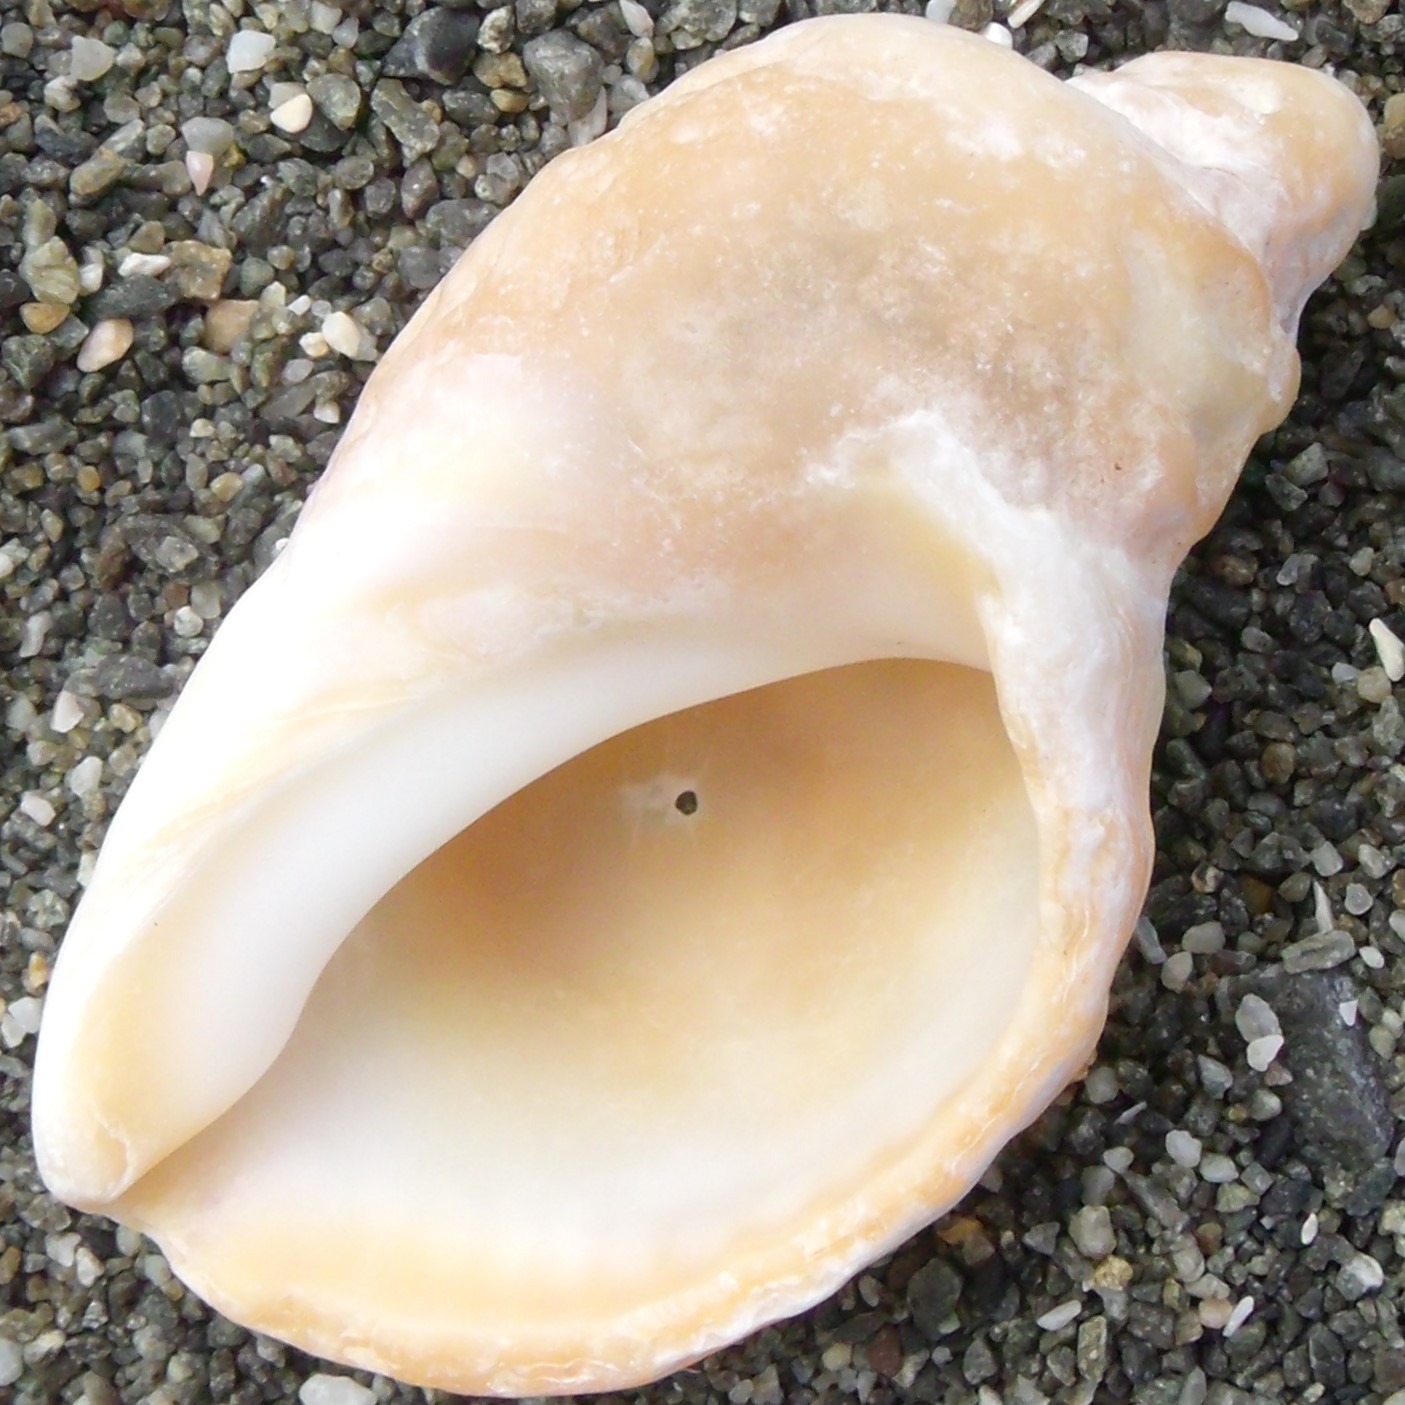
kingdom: Animalia
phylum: Mollusca
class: Gastropoda
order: Neogastropoda
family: Muricidae
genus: Dicathais
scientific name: Dicathais orbita
